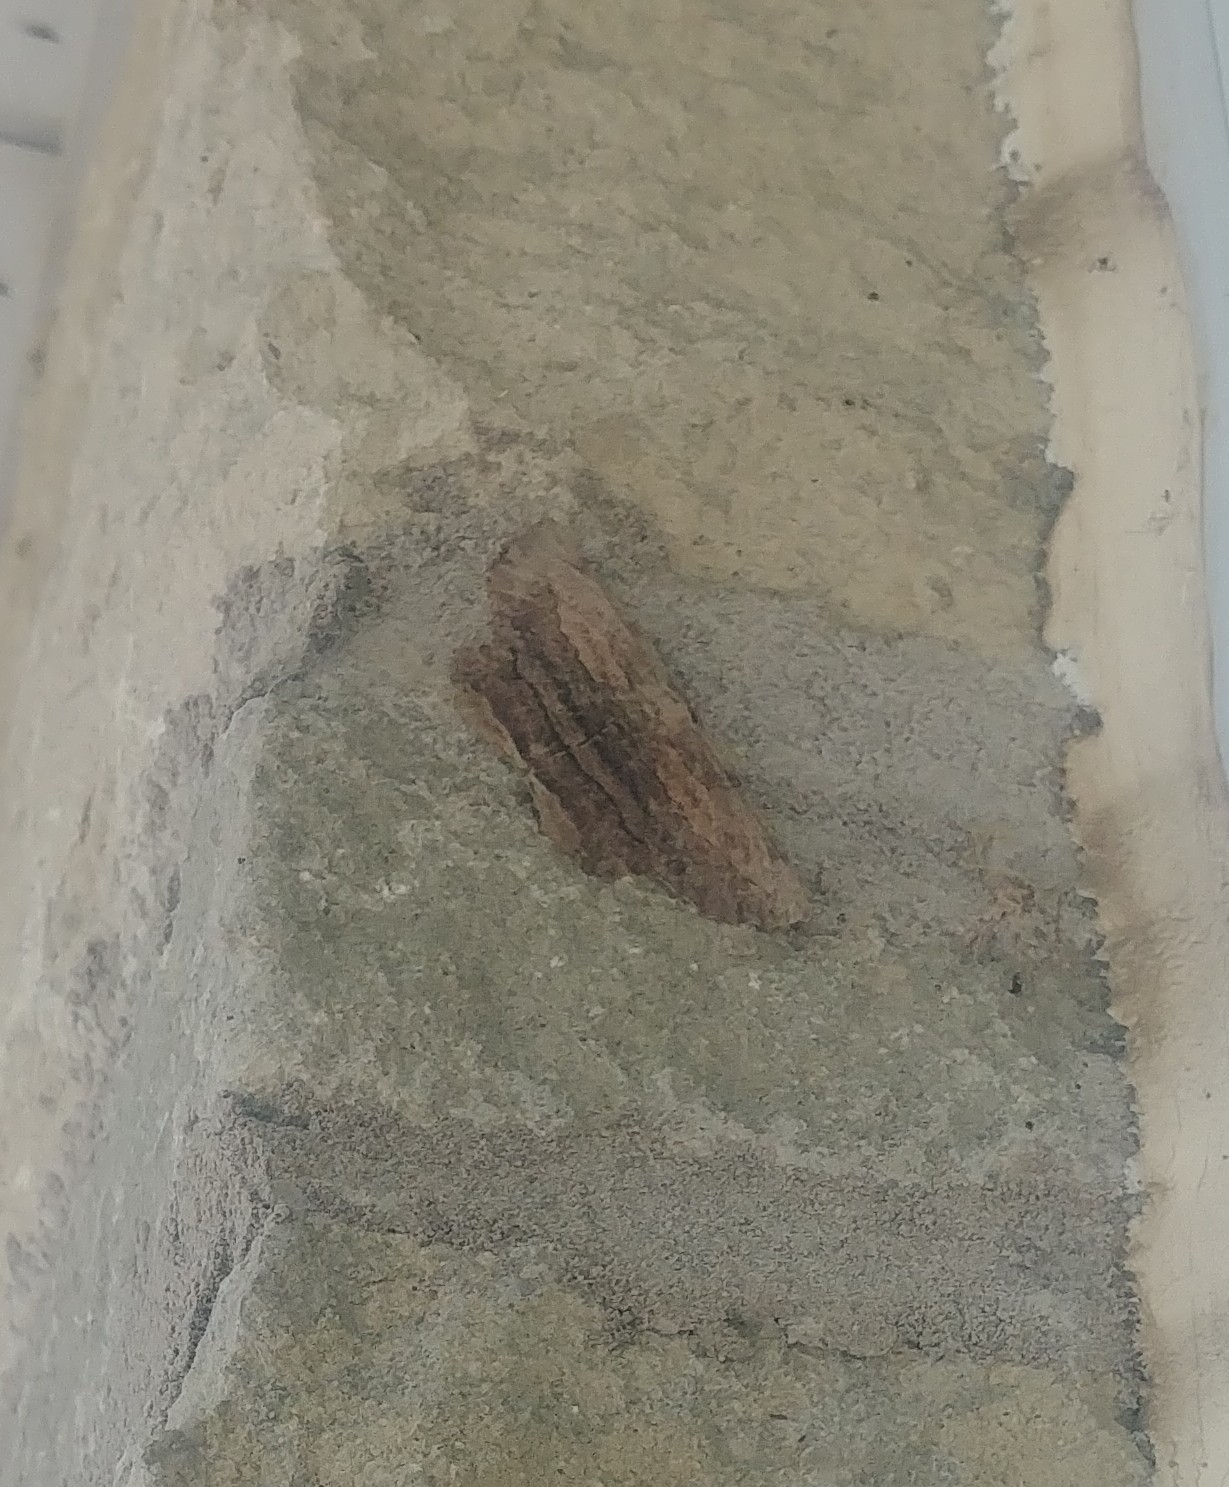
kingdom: Animalia
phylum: Arthropoda
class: Insecta
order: Lepidoptera
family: Geometridae
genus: Lytrosis
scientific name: Lytrosis unitaria
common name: Common lytrosis
